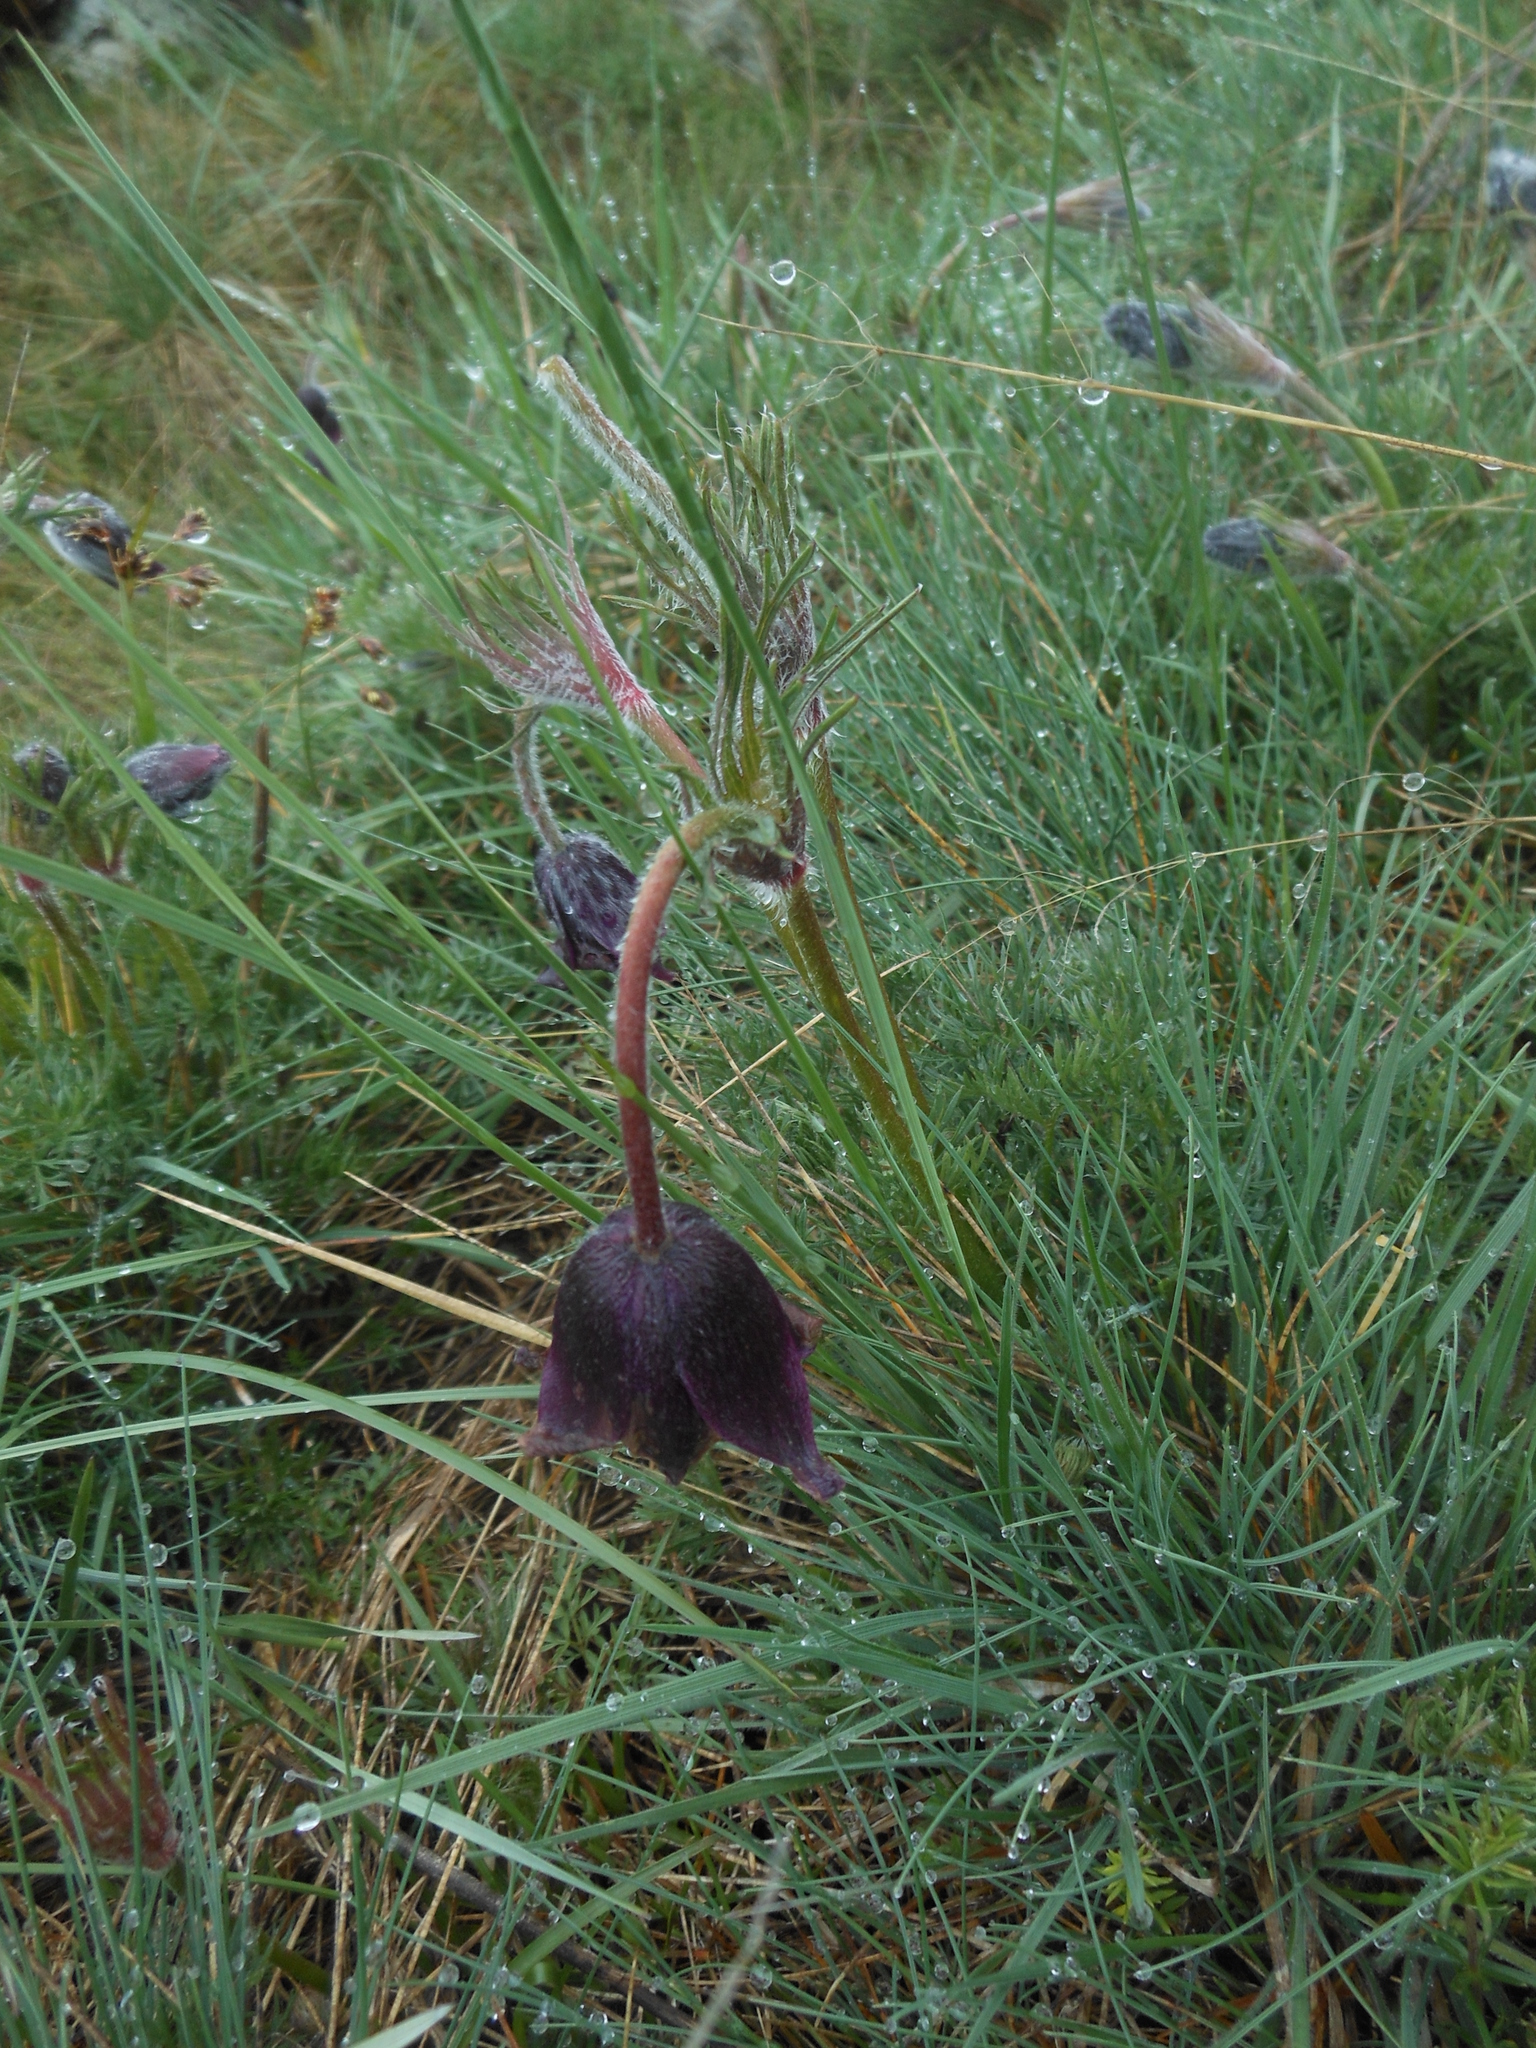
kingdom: Plantae
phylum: Tracheophyta
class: Magnoliopsida
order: Ranunculales
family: Ranunculaceae
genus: Pulsatilla
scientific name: Pulsatilla rubra
